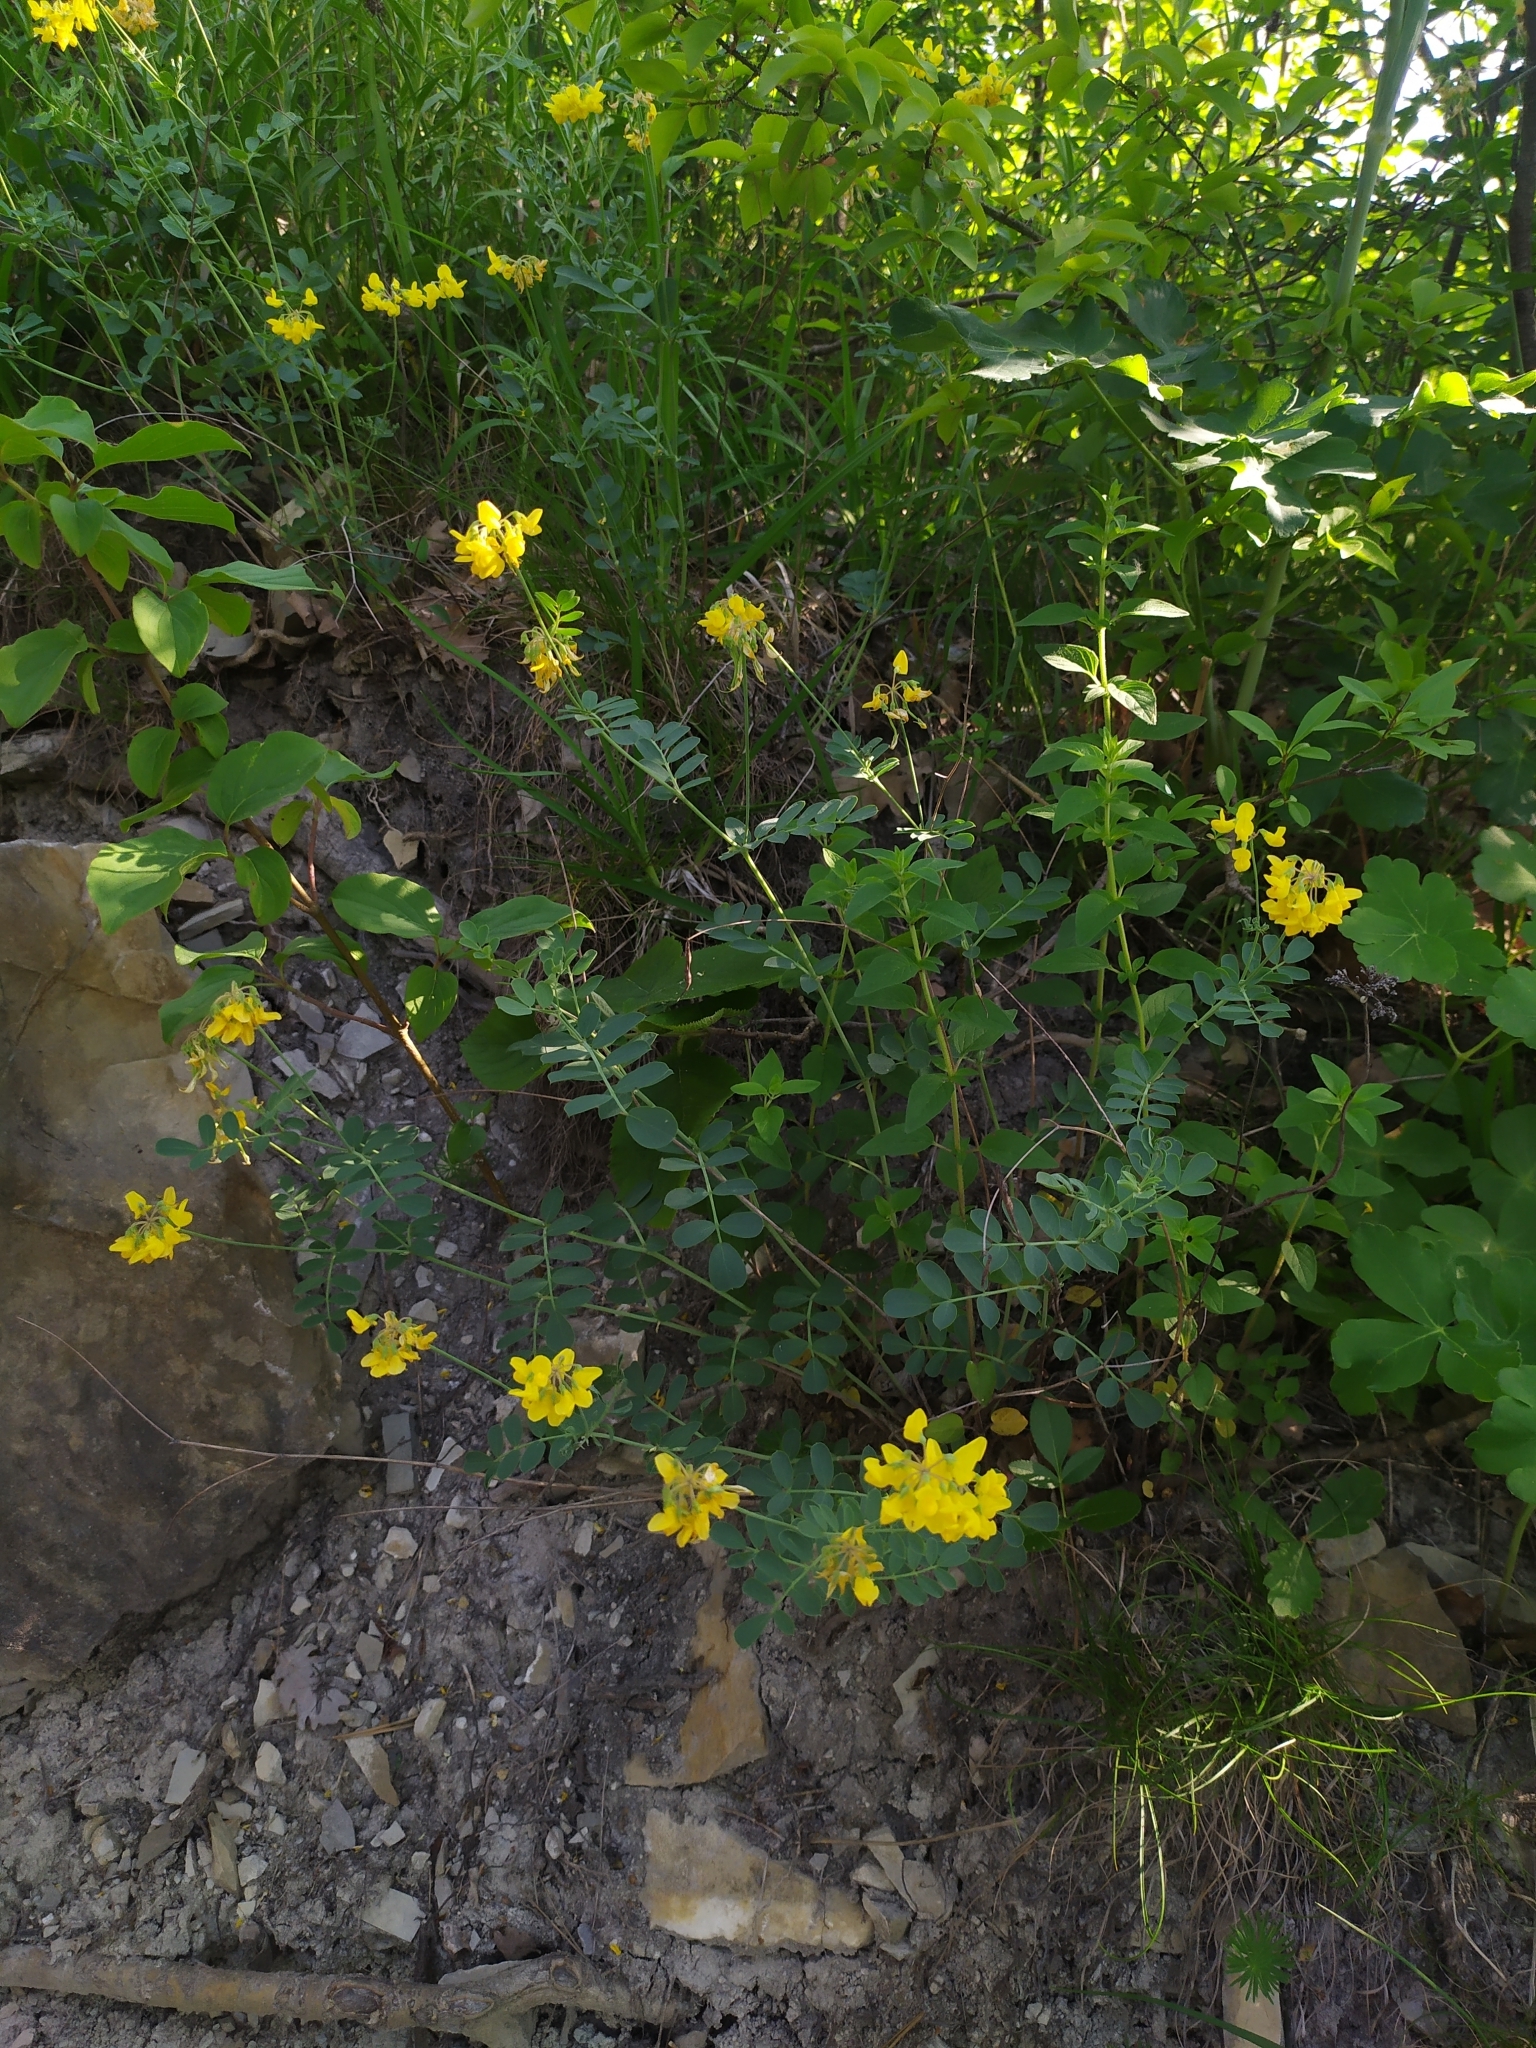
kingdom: Plantae
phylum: Tracheophyta
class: Magnoliopsida
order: Fabales
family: Fabaceae
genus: Coronilla
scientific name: Coronilla coronata
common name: Scorpion-vetch
